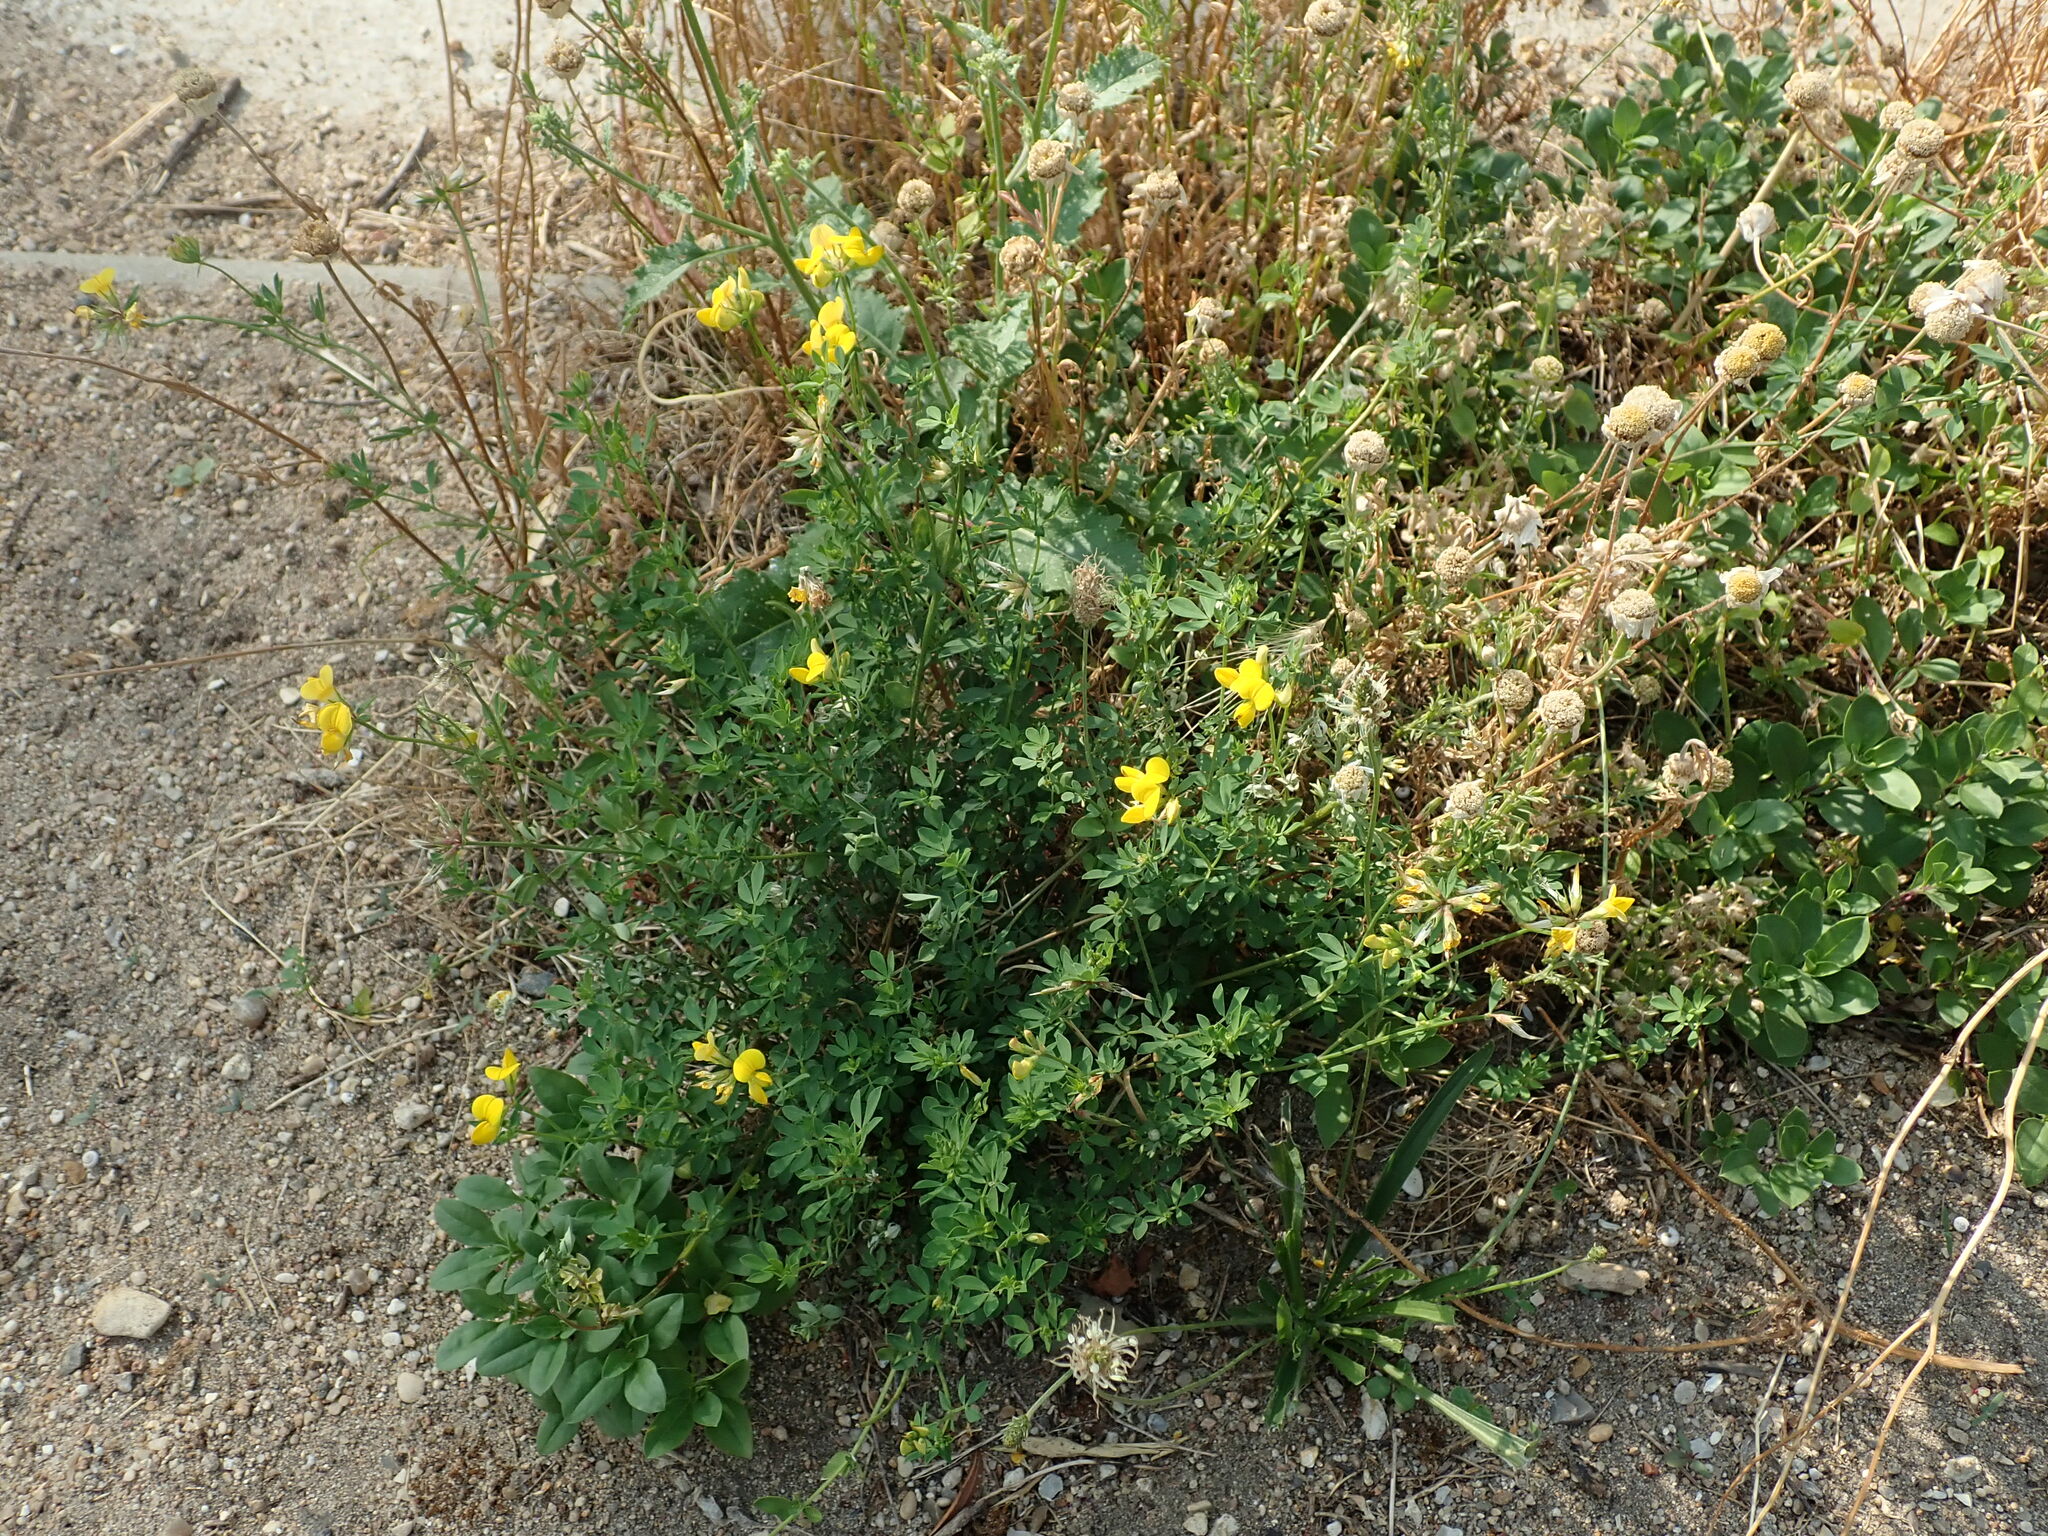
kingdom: Plantae
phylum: Tracheophyta
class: Magnoliopsida
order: Fabales
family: Fabaceae
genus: Lotus
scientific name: Lotus corniculatus
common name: Common bird's-foot-trefoil
